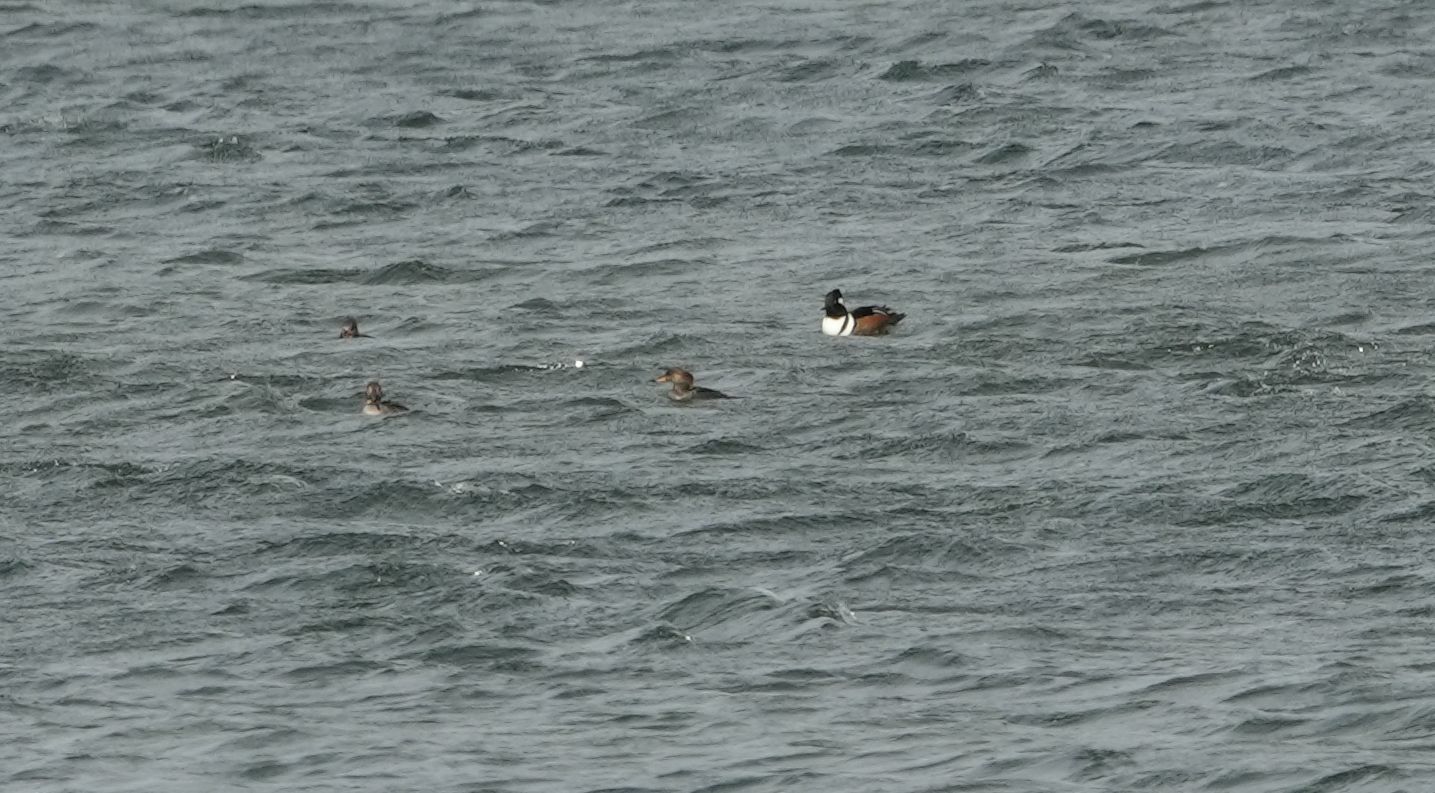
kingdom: Animalia
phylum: Chordata
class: Aves
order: Anseriformes
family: Anatidae
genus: Lophodytes
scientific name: Lophodytes cucullatus
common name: Hooded merganser
